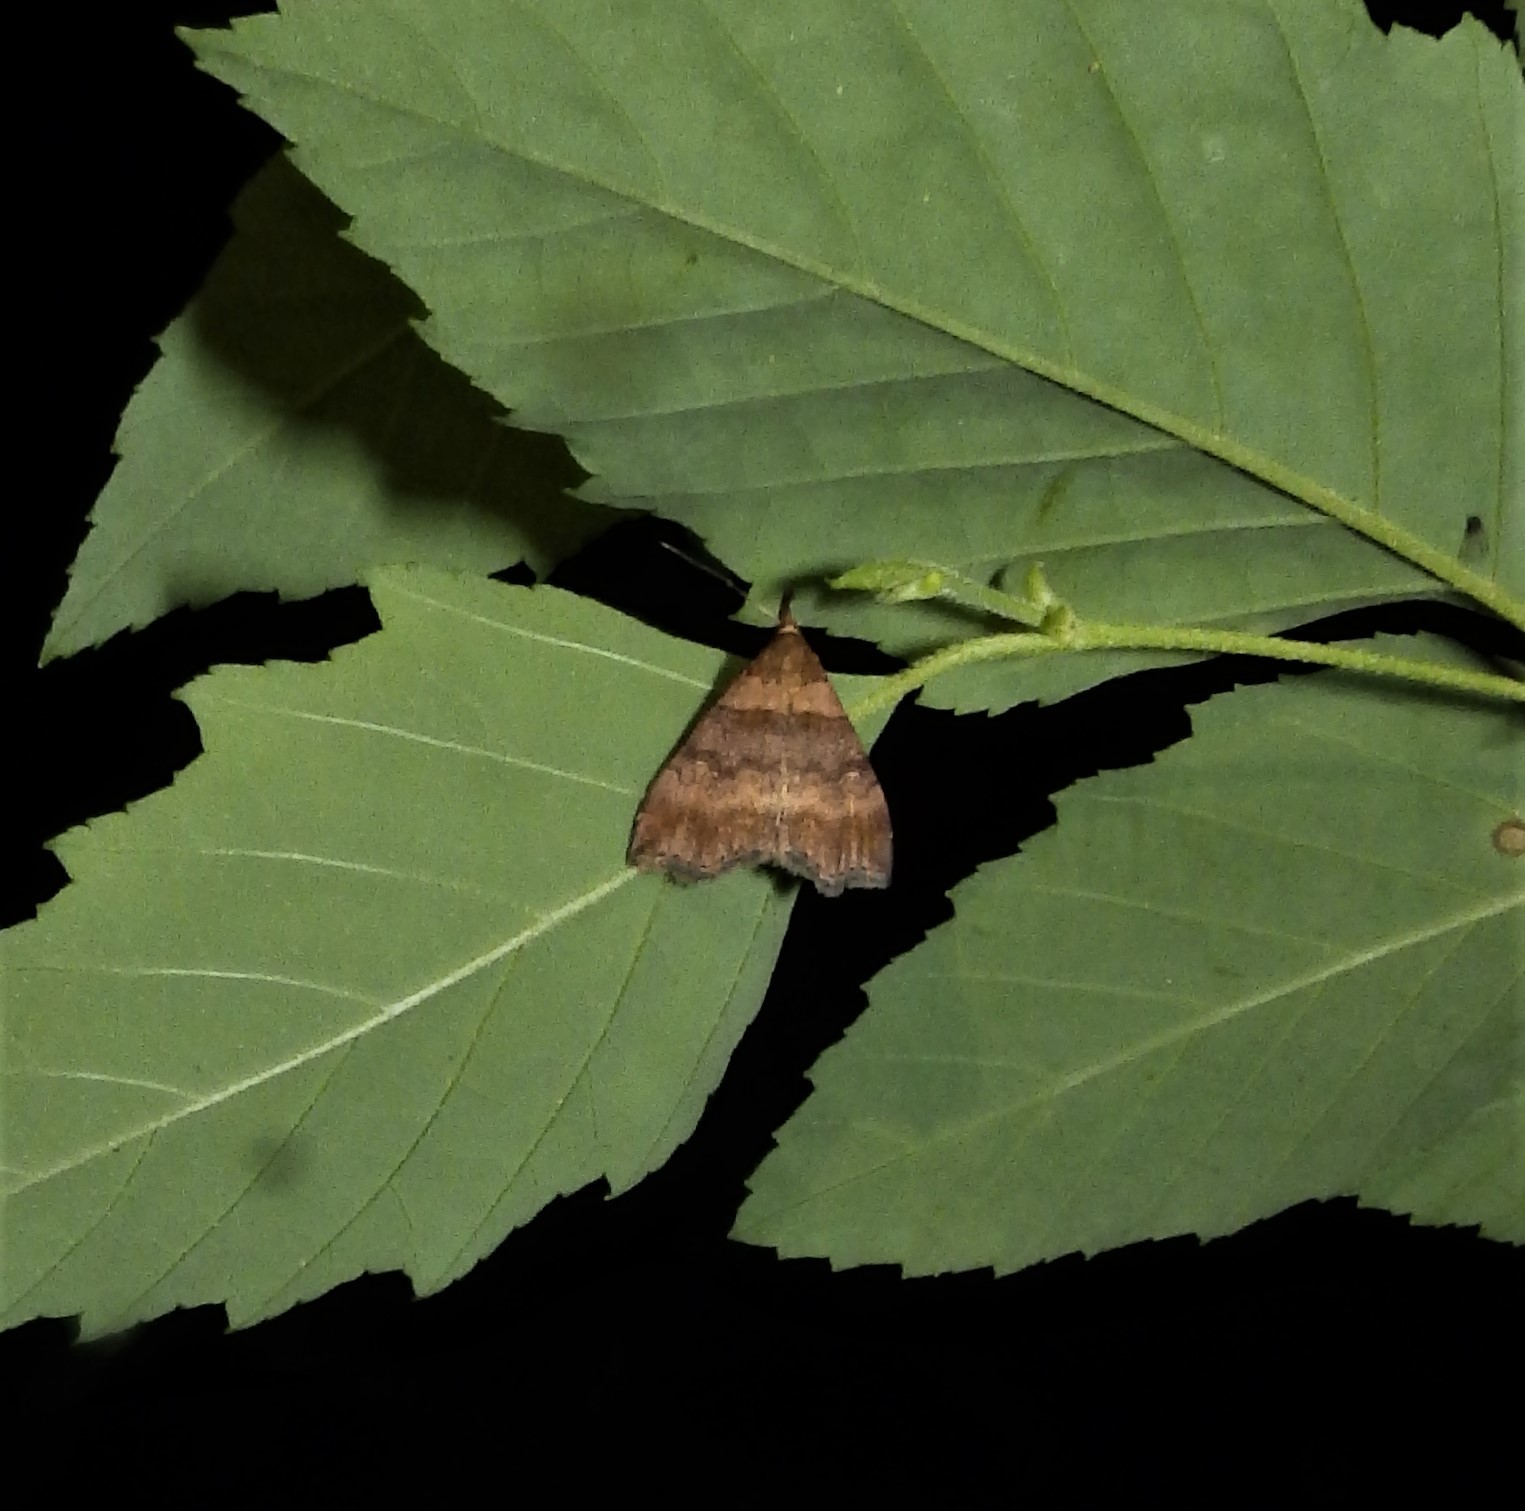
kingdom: Animalia
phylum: Arthropoda
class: Insecta
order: Lepidoptera
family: Erebidae
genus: Lascoria
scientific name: Lascoria ambigualis
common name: Ambiguous moth
